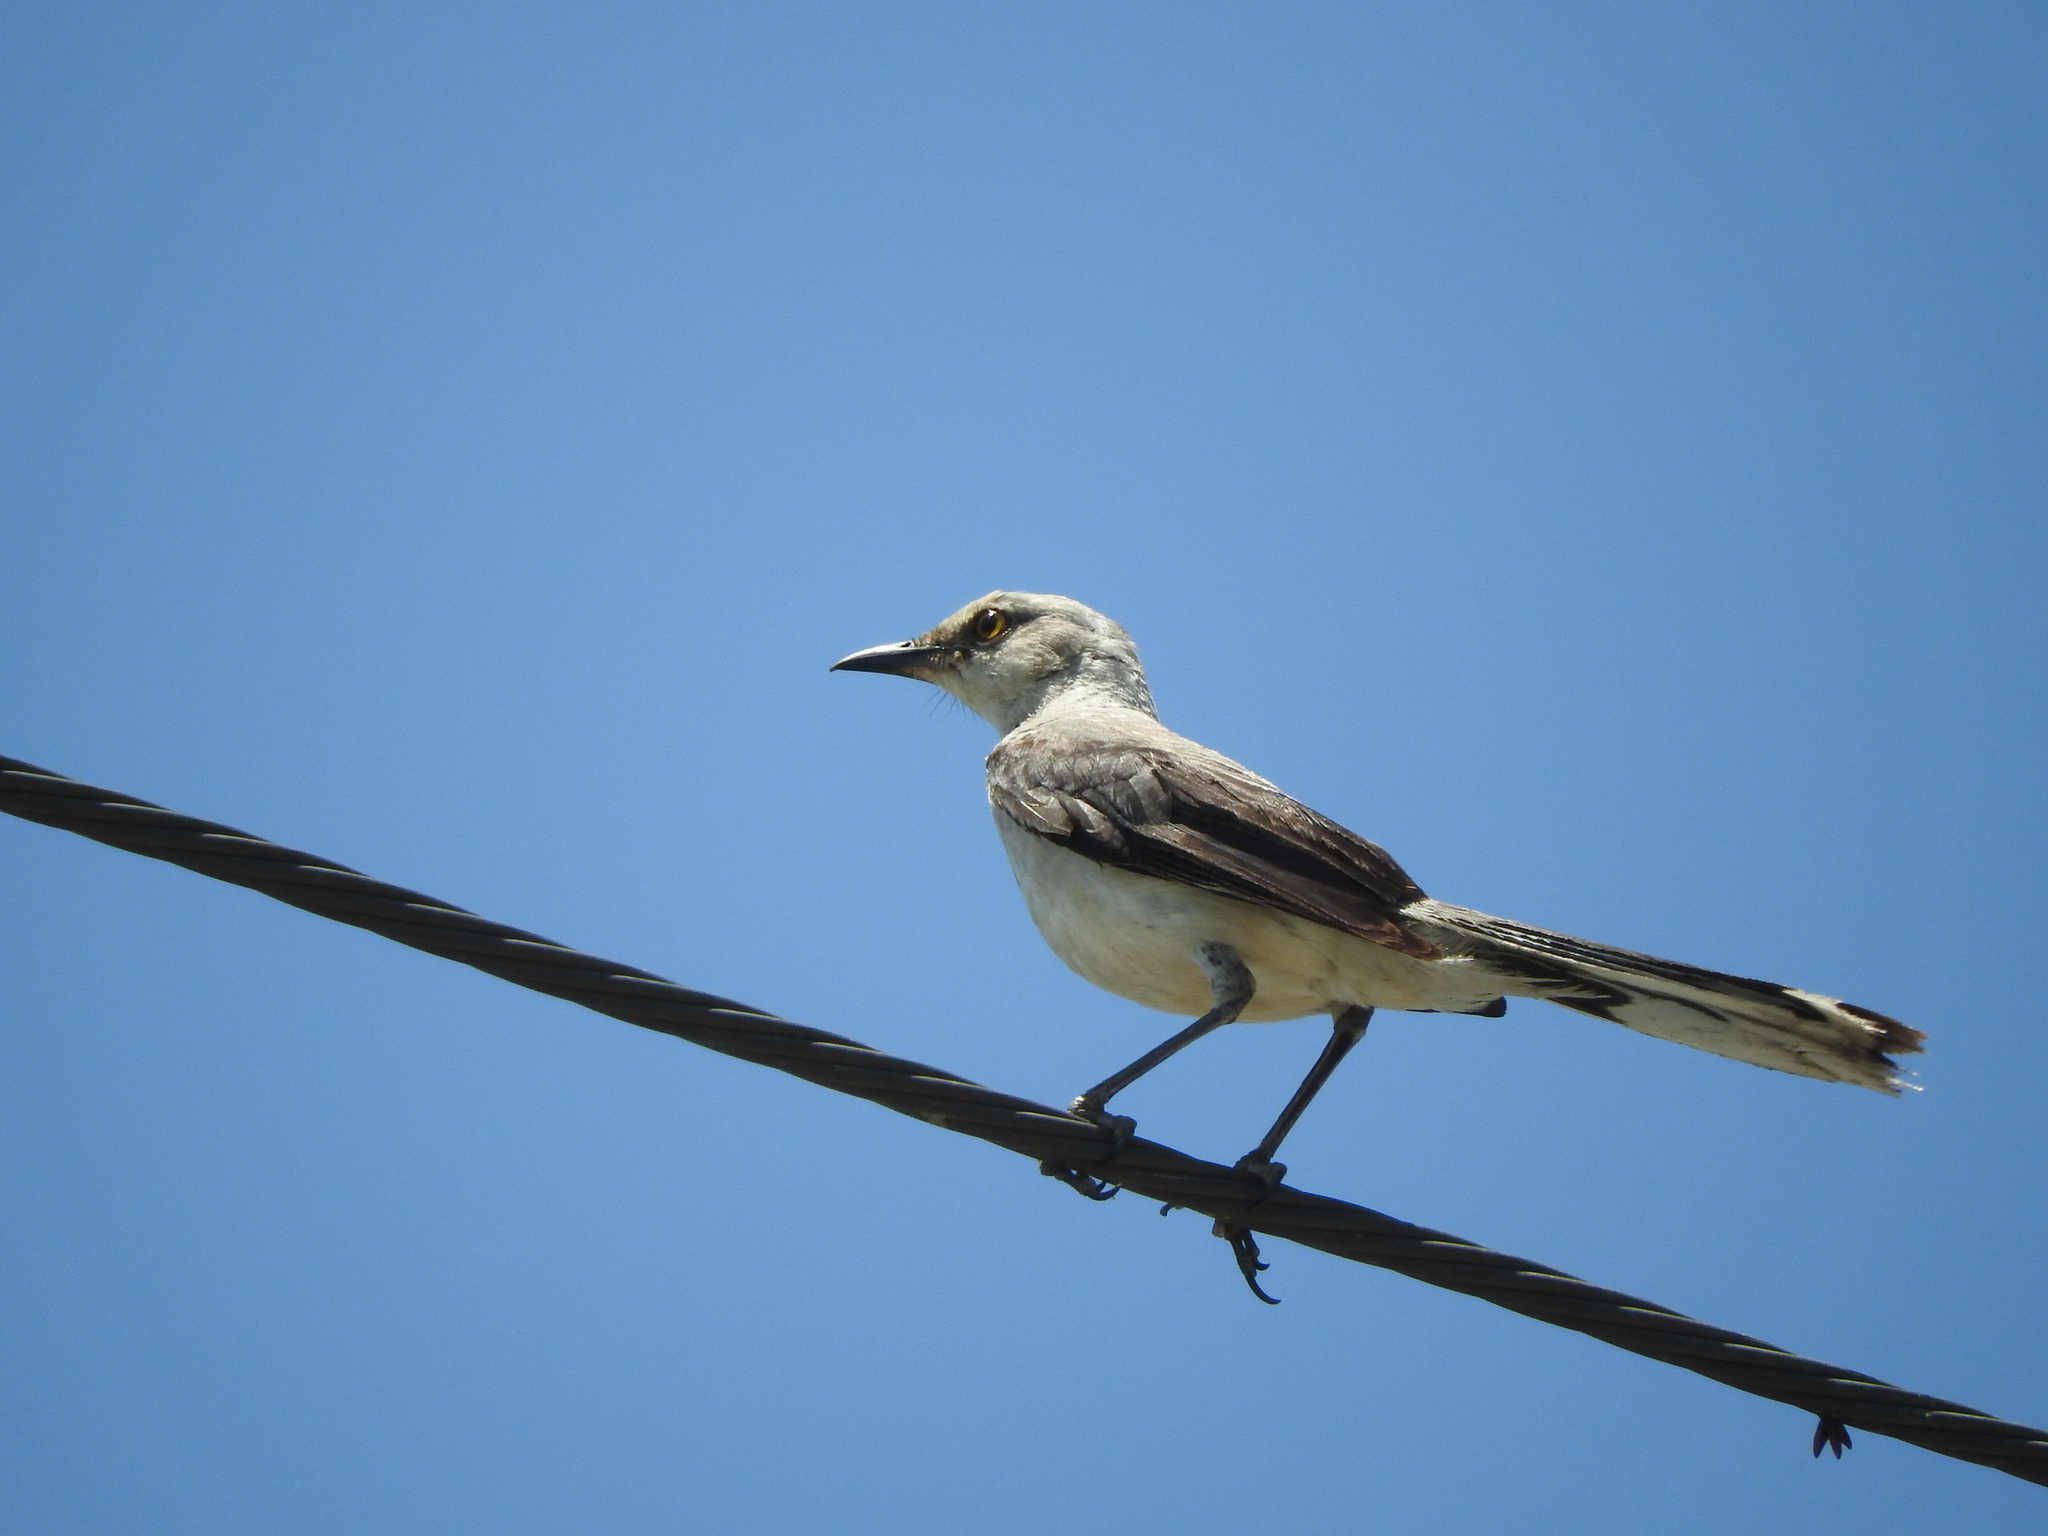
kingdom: Animalia
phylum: Chordata
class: Aves
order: Passeriformes
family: Mimidae
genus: Mimus
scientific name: Mimus gilvus
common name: Tropical mockingbird
